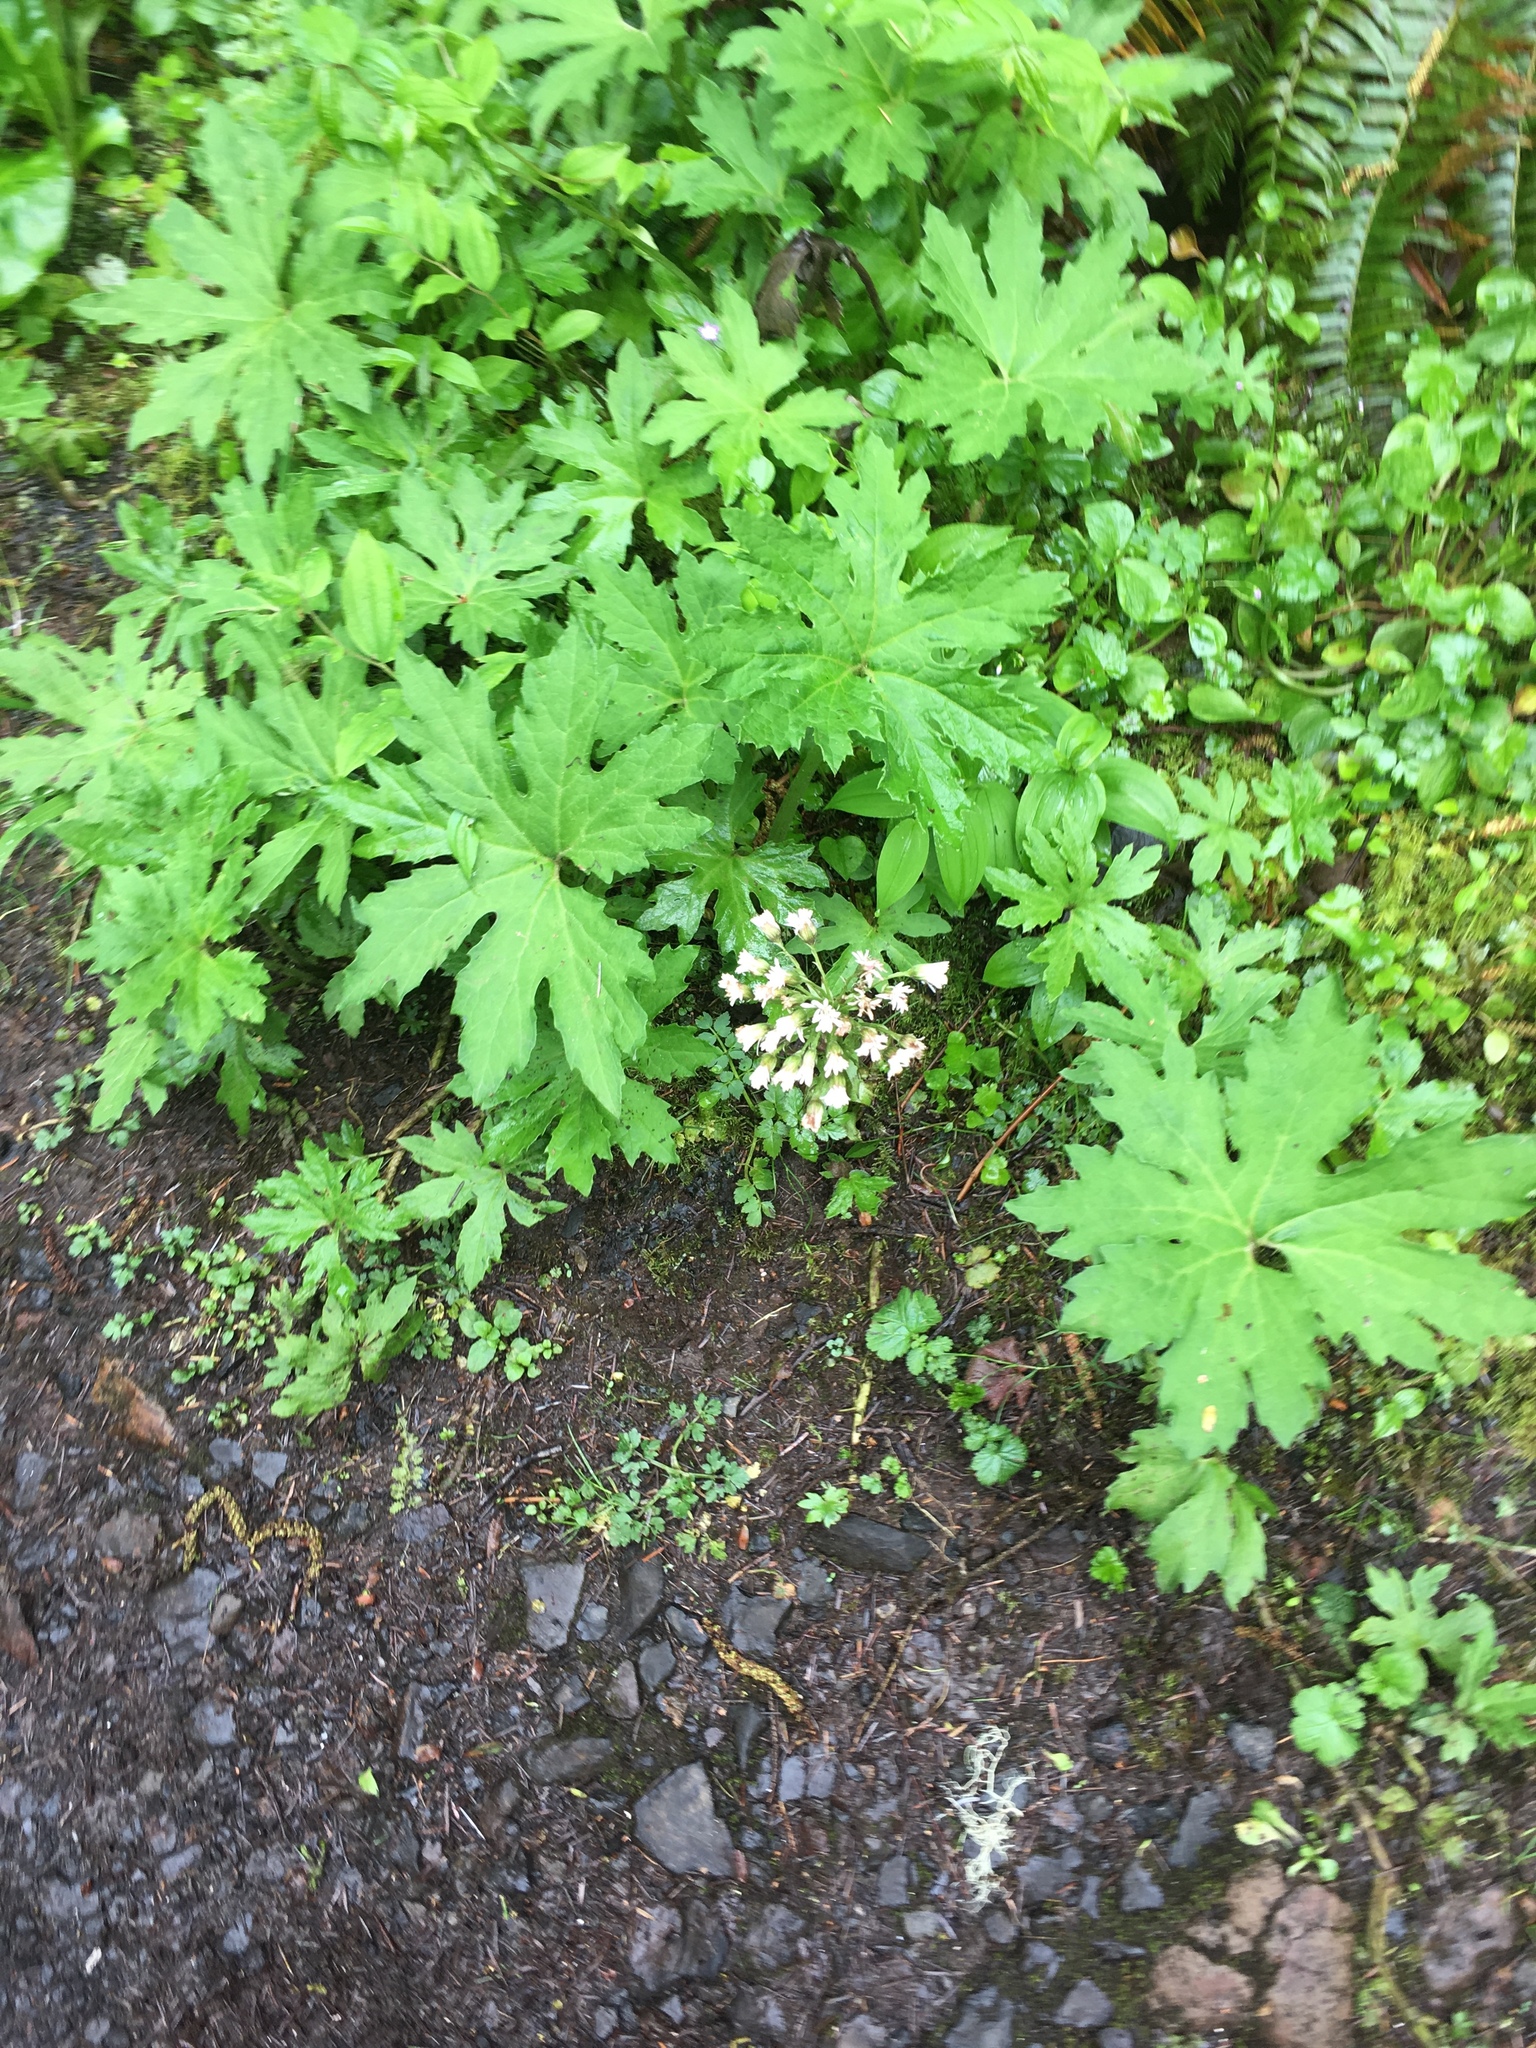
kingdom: Plantae
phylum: Tracheophyta
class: Magnoliopsida
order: Asterales
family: Asteraceae
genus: Petasites
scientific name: Petasites frigidus
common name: Arctic butterbur
